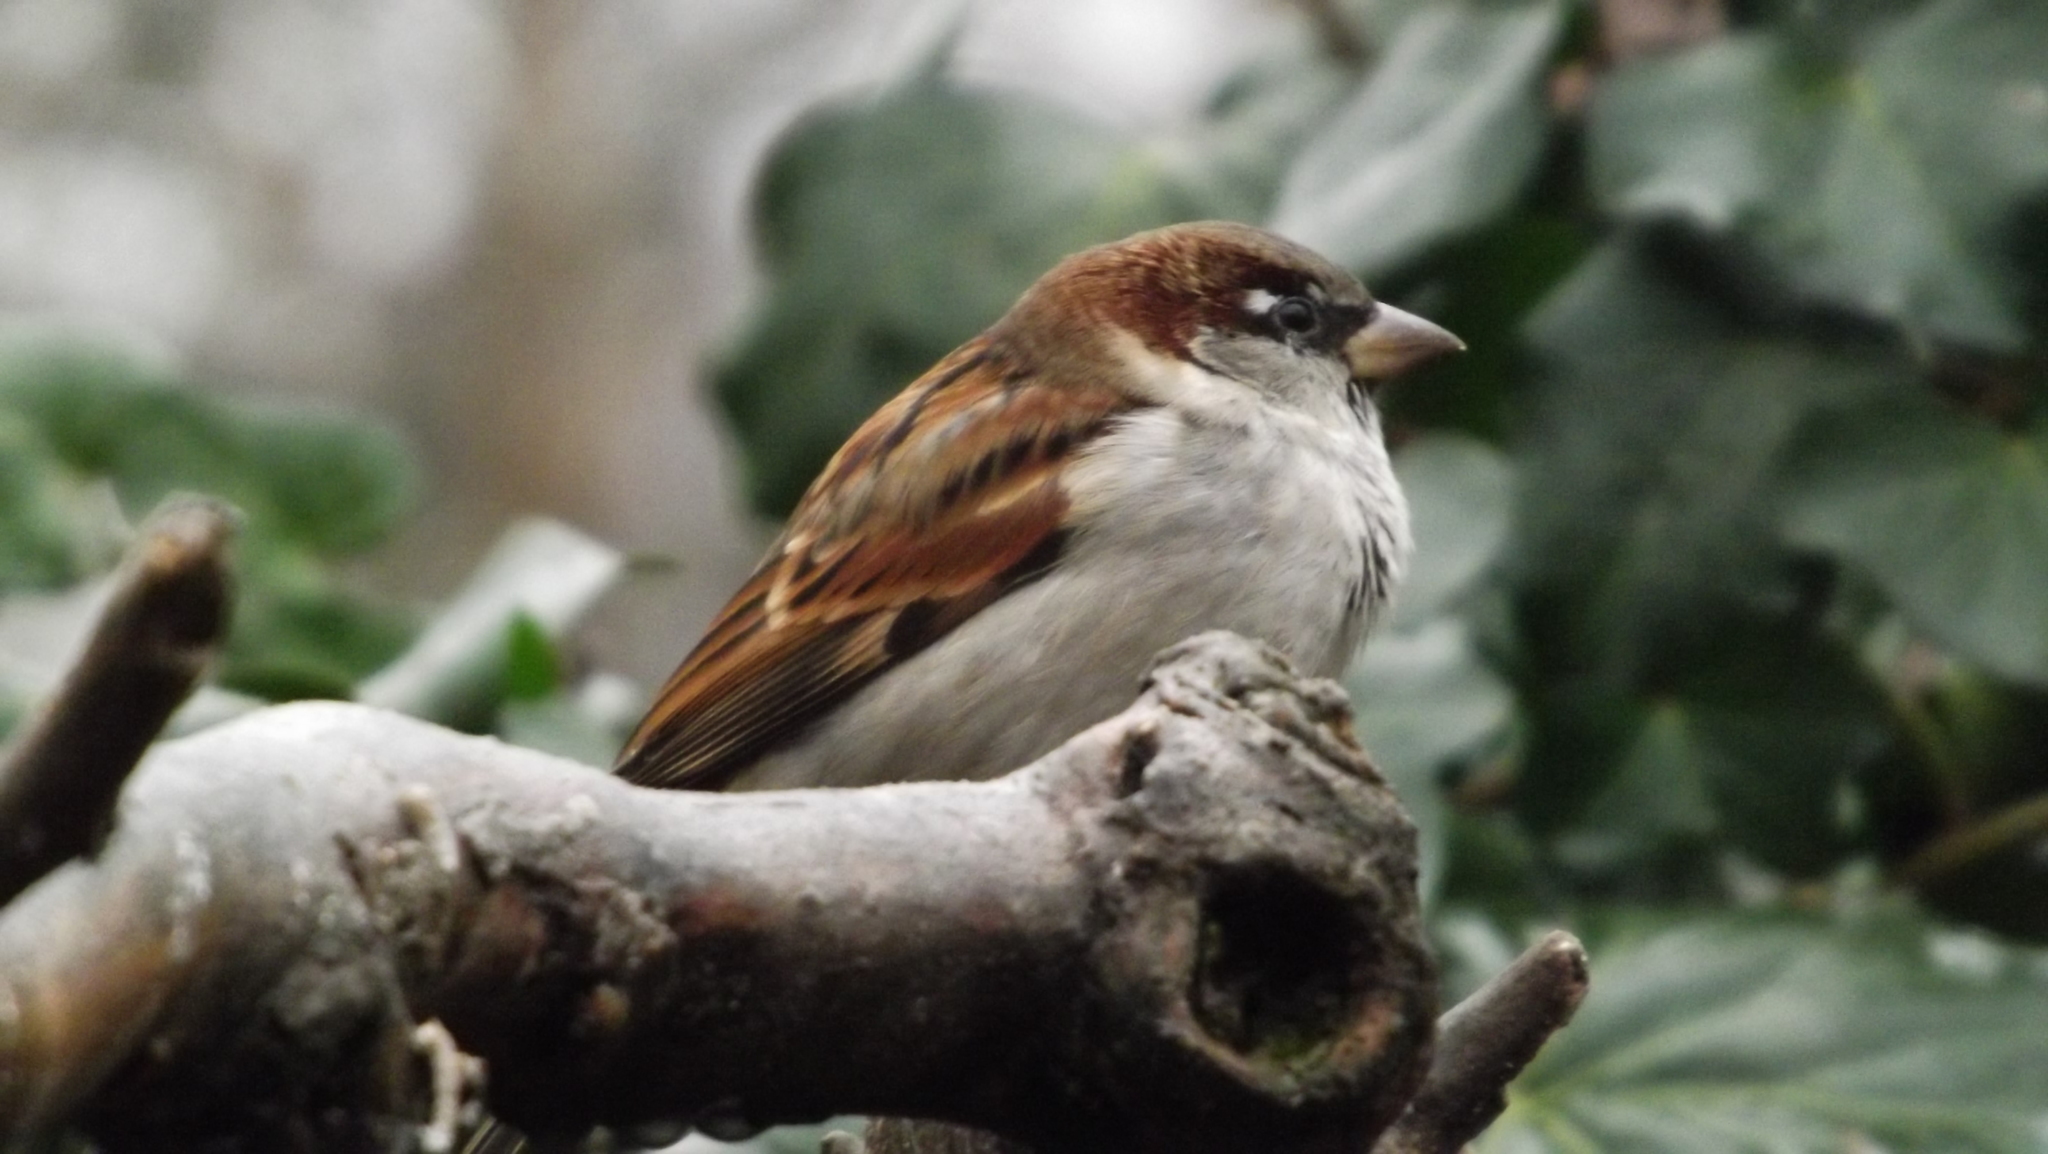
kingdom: Animalia
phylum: Chordata
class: Aves
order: Passeriformes
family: Passeridae
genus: Passer
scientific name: Passer domesticus
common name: House sparrow
